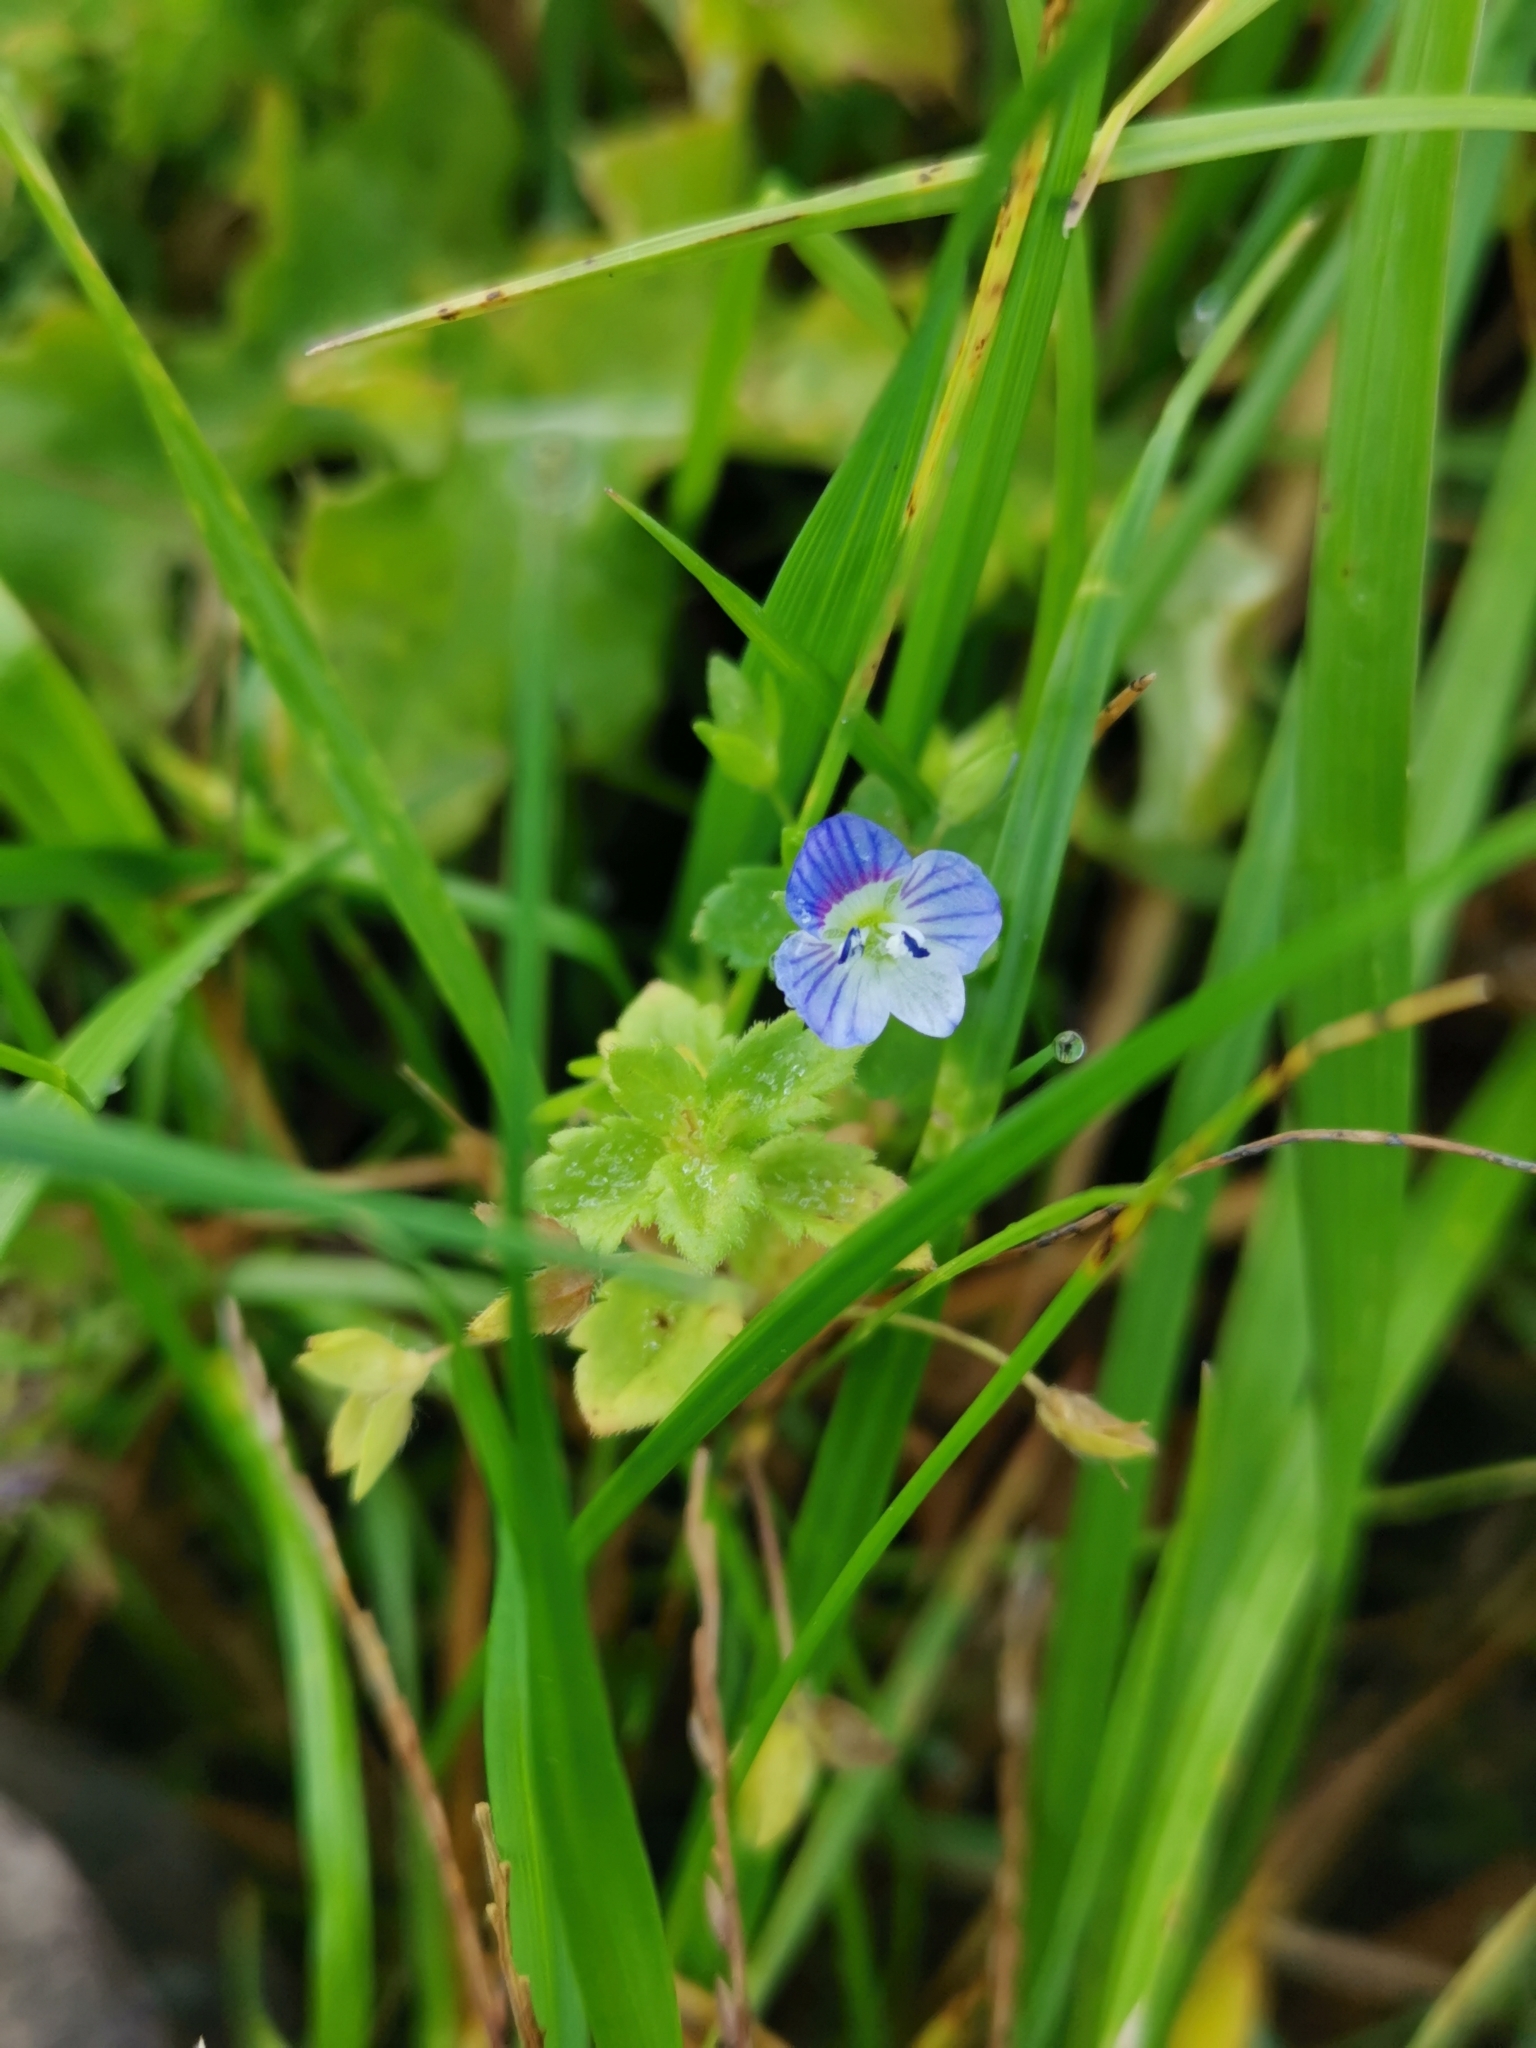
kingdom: Plantae
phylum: Tracheophyta
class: Magnoliopsida
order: Lamiales
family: Plantaginaceae
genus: Veronica
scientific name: Veronica persica
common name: Common field-speedwell
